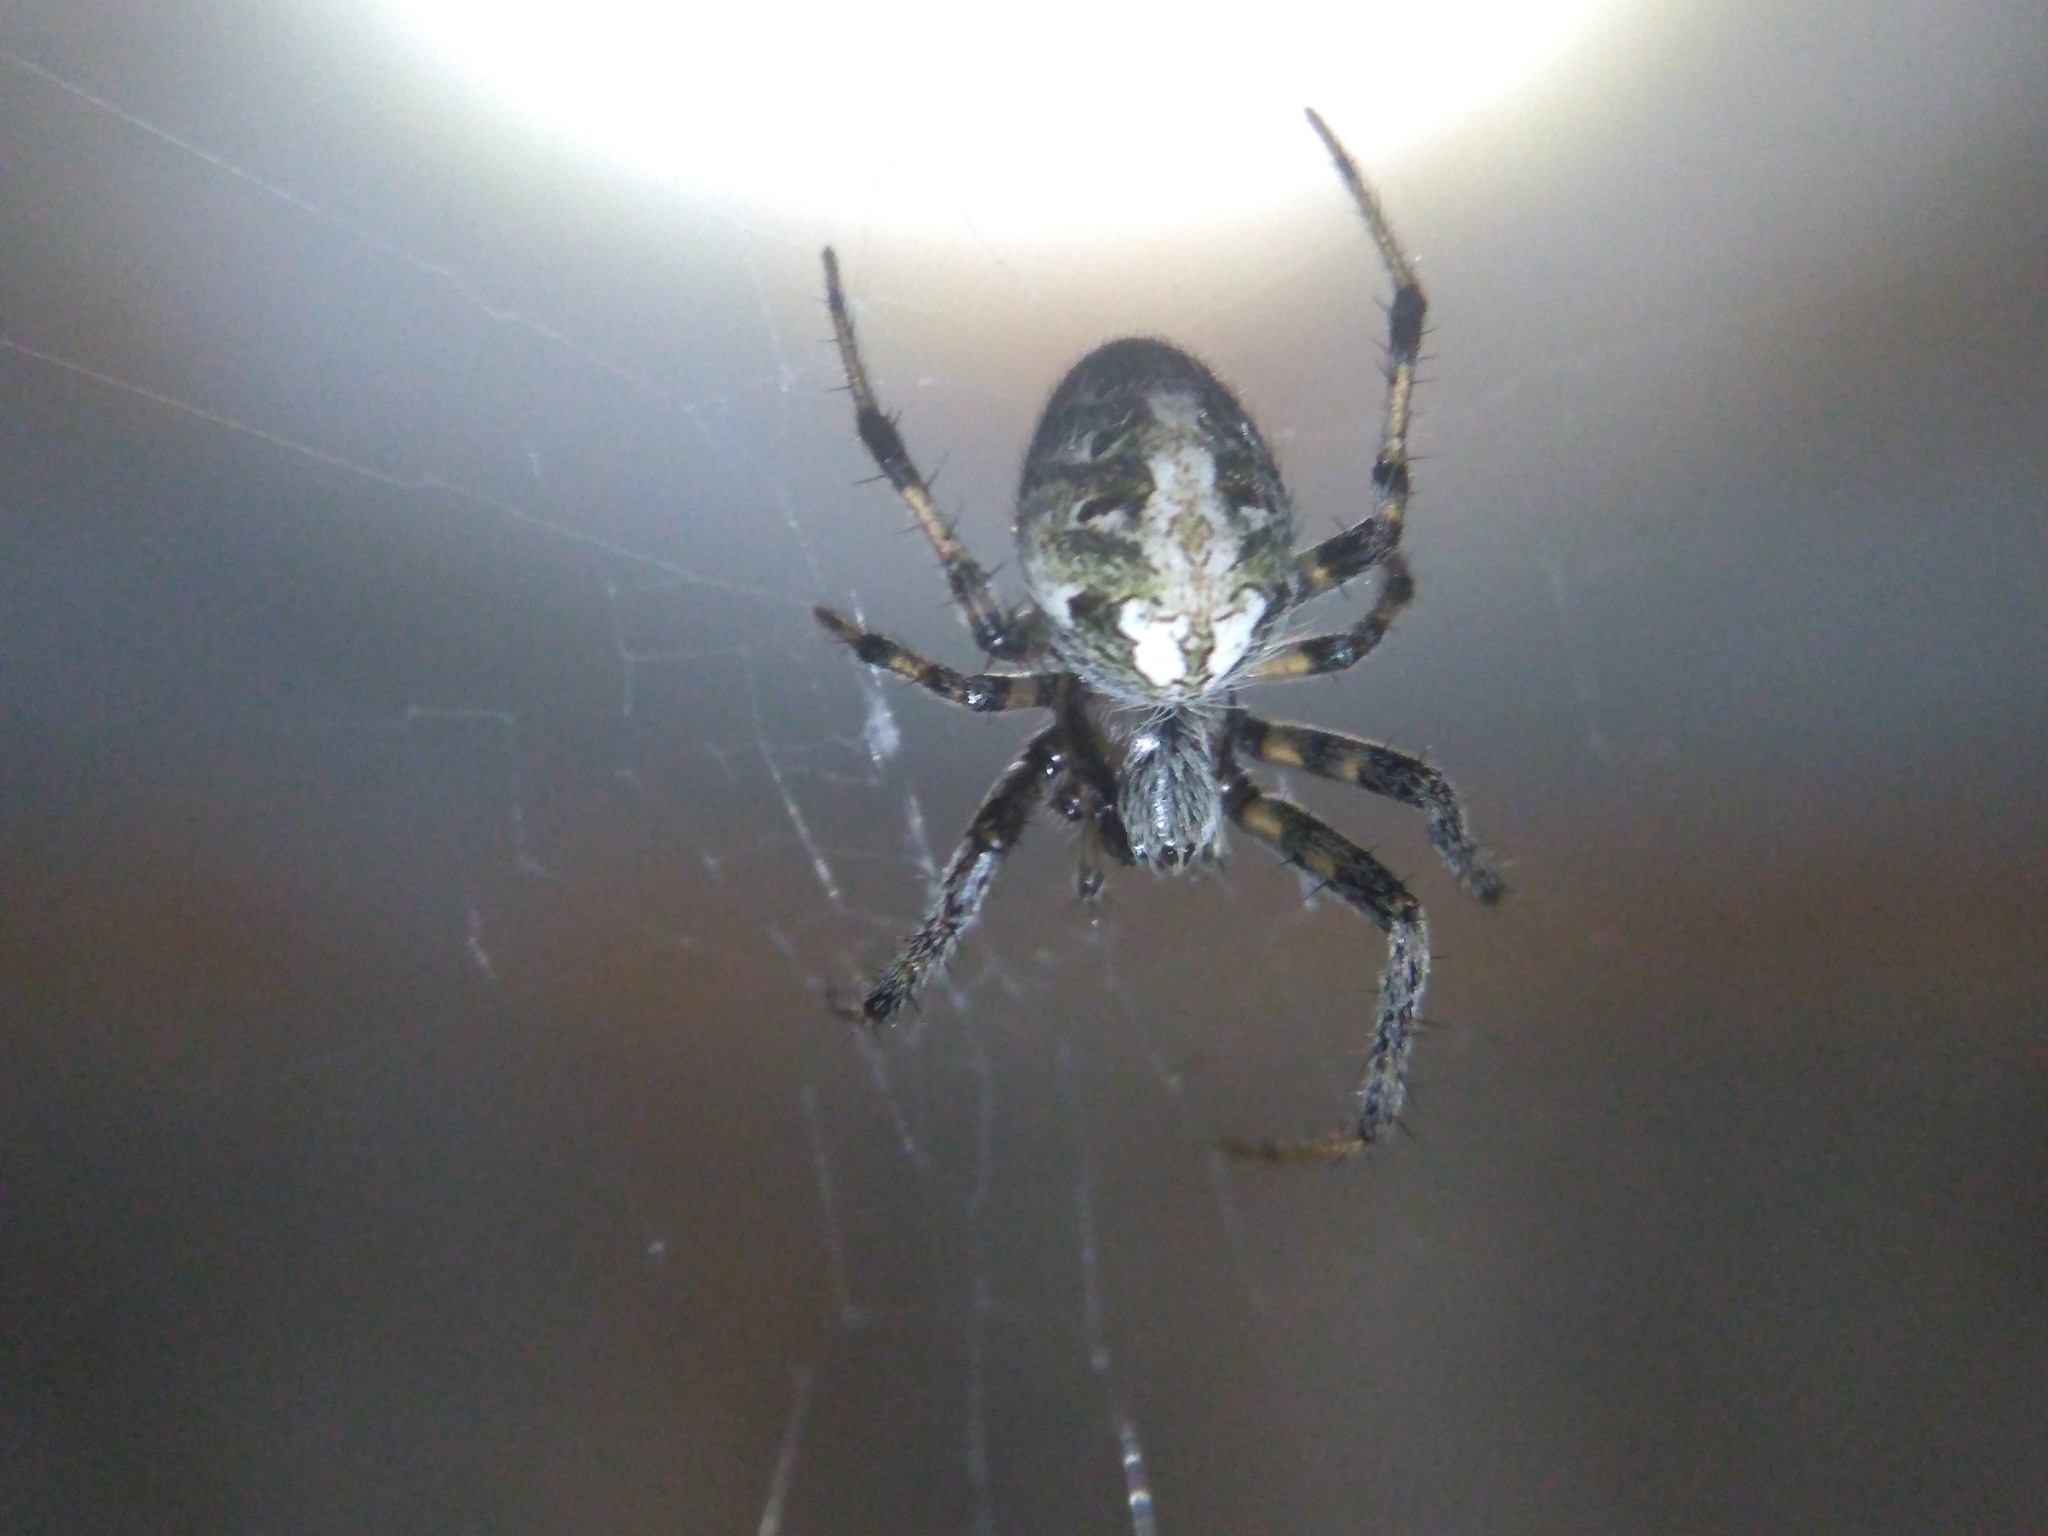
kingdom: Animalia
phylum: Arthropoda
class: Arachnida
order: Araneae
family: Araneidae
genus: Neoscona
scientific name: Neoscona arabesca
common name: Orb weavers
